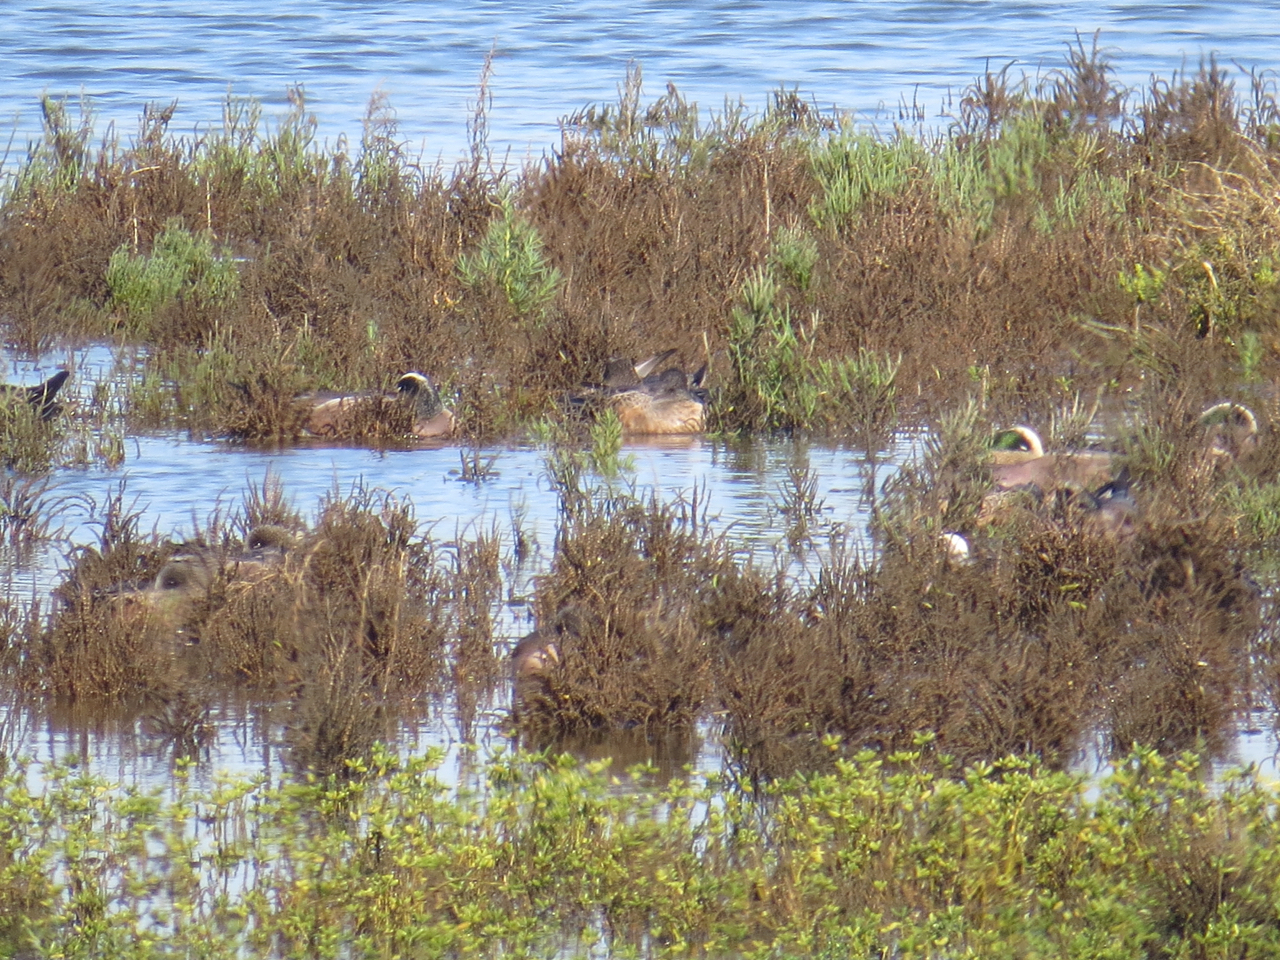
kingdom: Animalia
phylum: Chordata
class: Aves
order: Anseriformes
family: Anatidae
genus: Mareca
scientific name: Mareca americana
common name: American wigeon
